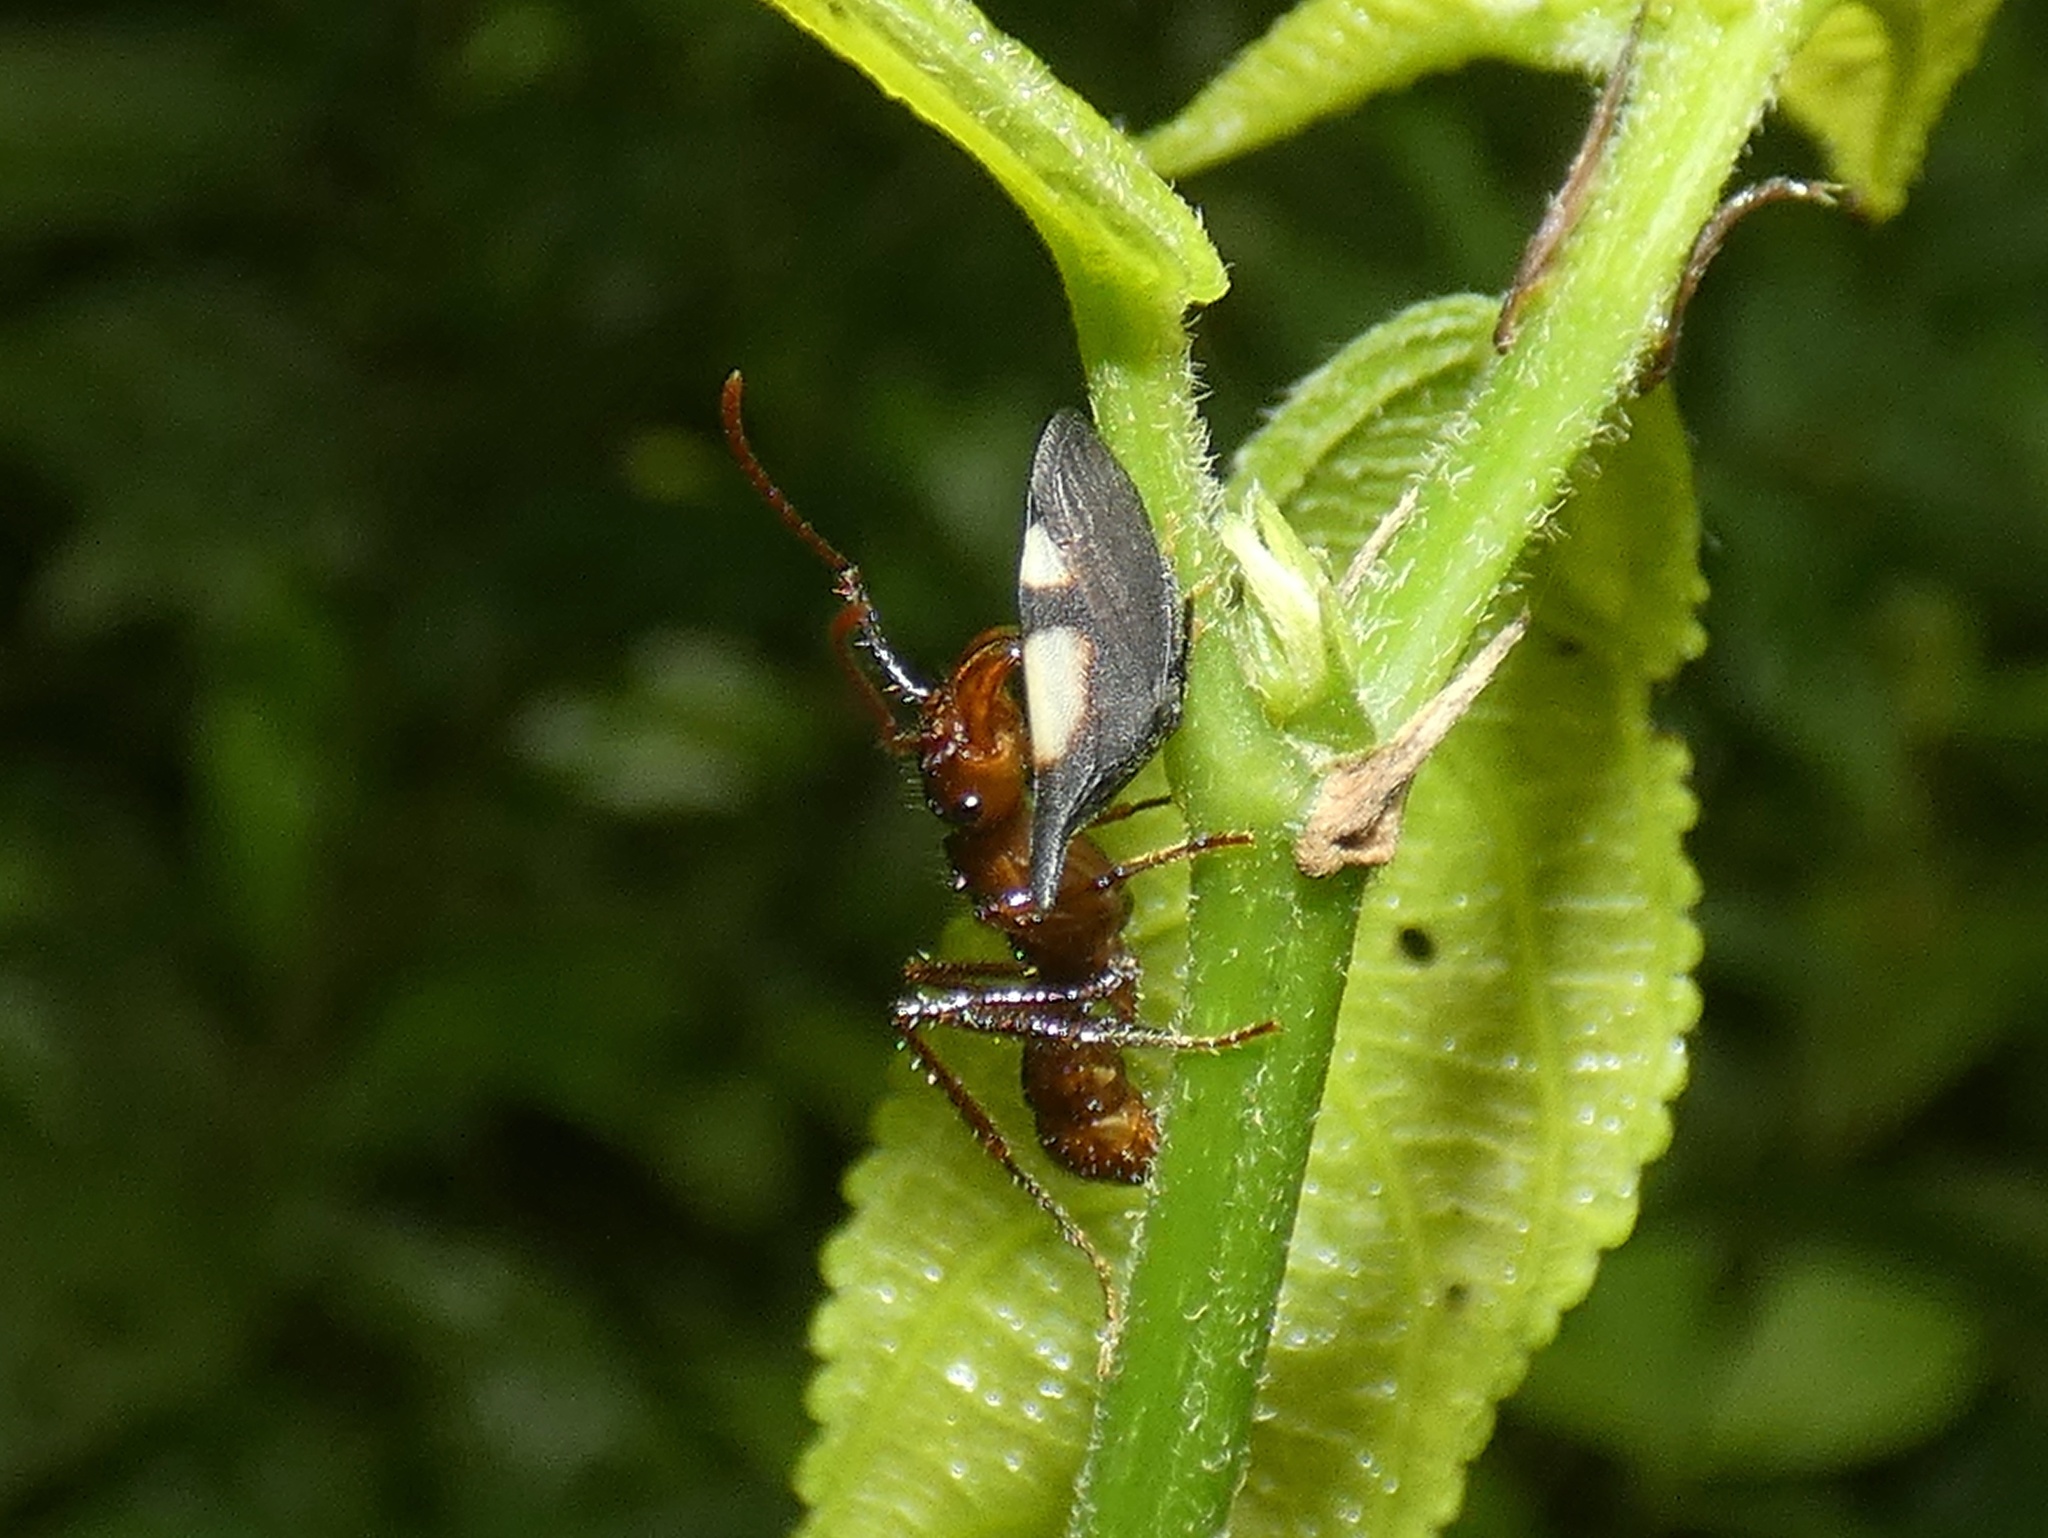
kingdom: Animalia
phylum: Arthropoda
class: Insecta
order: Hymenoptera
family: Formicidae
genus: Ectatomma
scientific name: Ectatomma tuberculatum
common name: Ant
